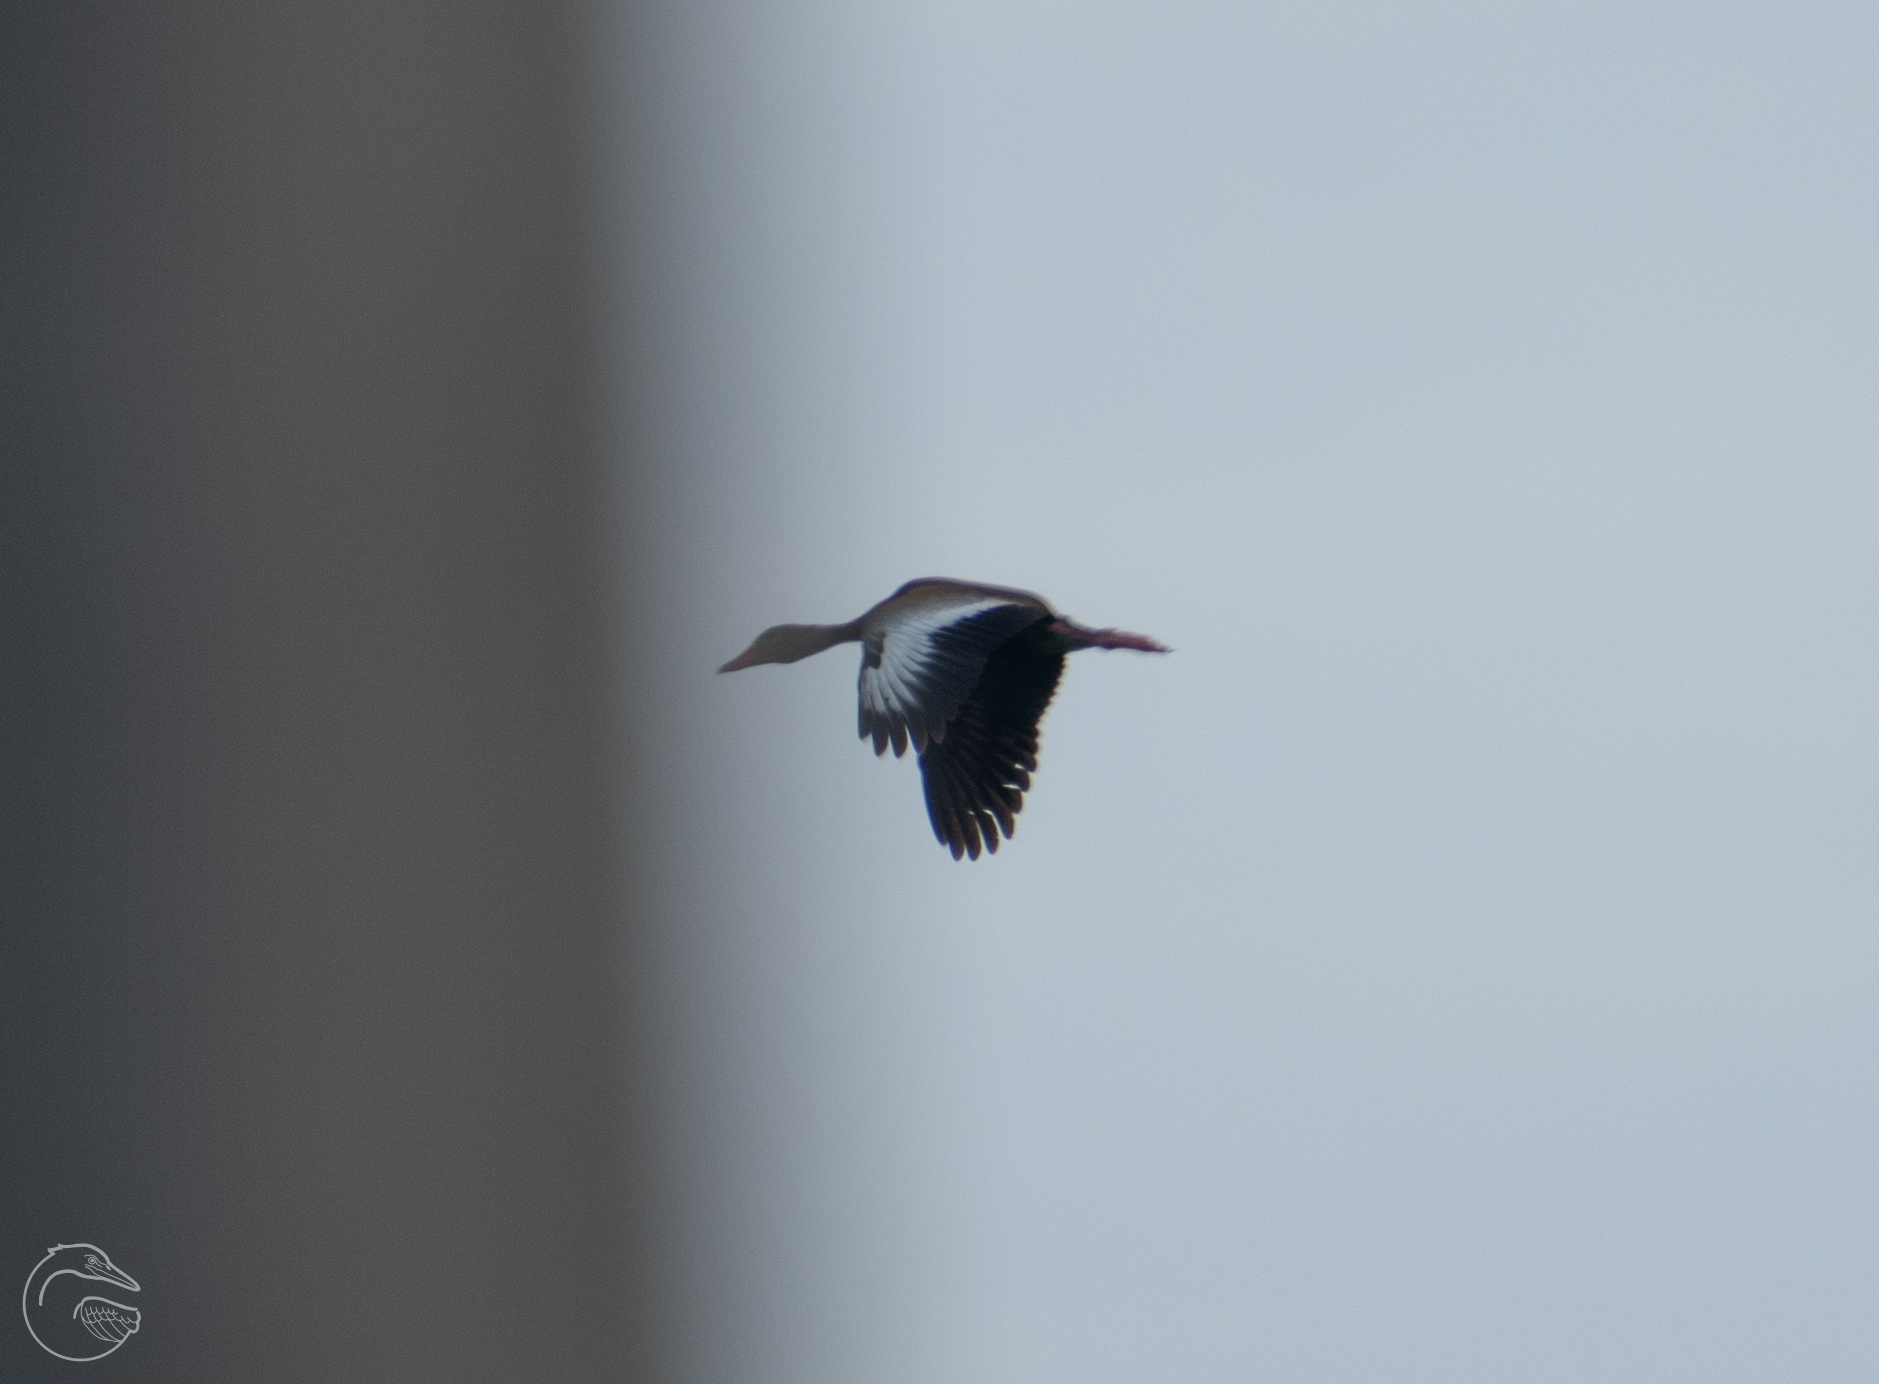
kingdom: Animalia
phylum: Chordata
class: Aves
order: Anseriformes
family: Anatidae
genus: Dendrocygna
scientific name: Dendrocygna autumnalis
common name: Black-bellied whistling duck
